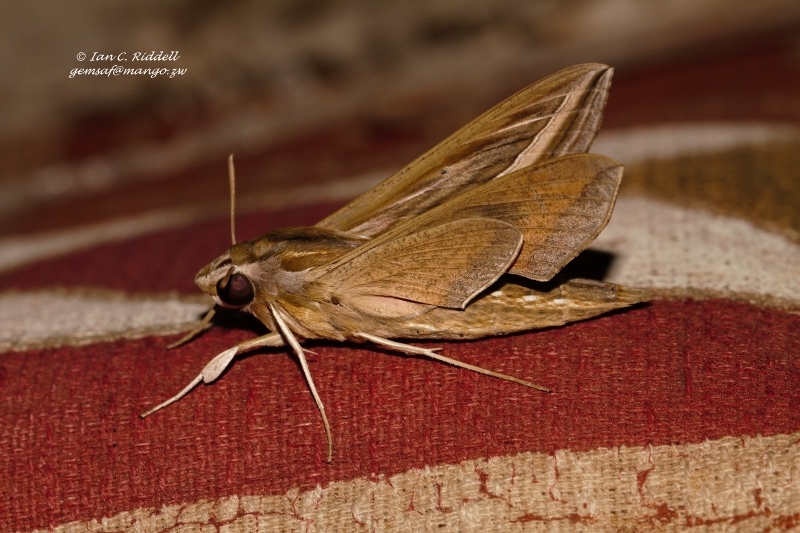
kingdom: Animalia
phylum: Arthropoda
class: Insecta
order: Lepidoptera
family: Sphingidae
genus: Hippotion
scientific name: Hippotion celerio
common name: Silver-striped hawk-moth
